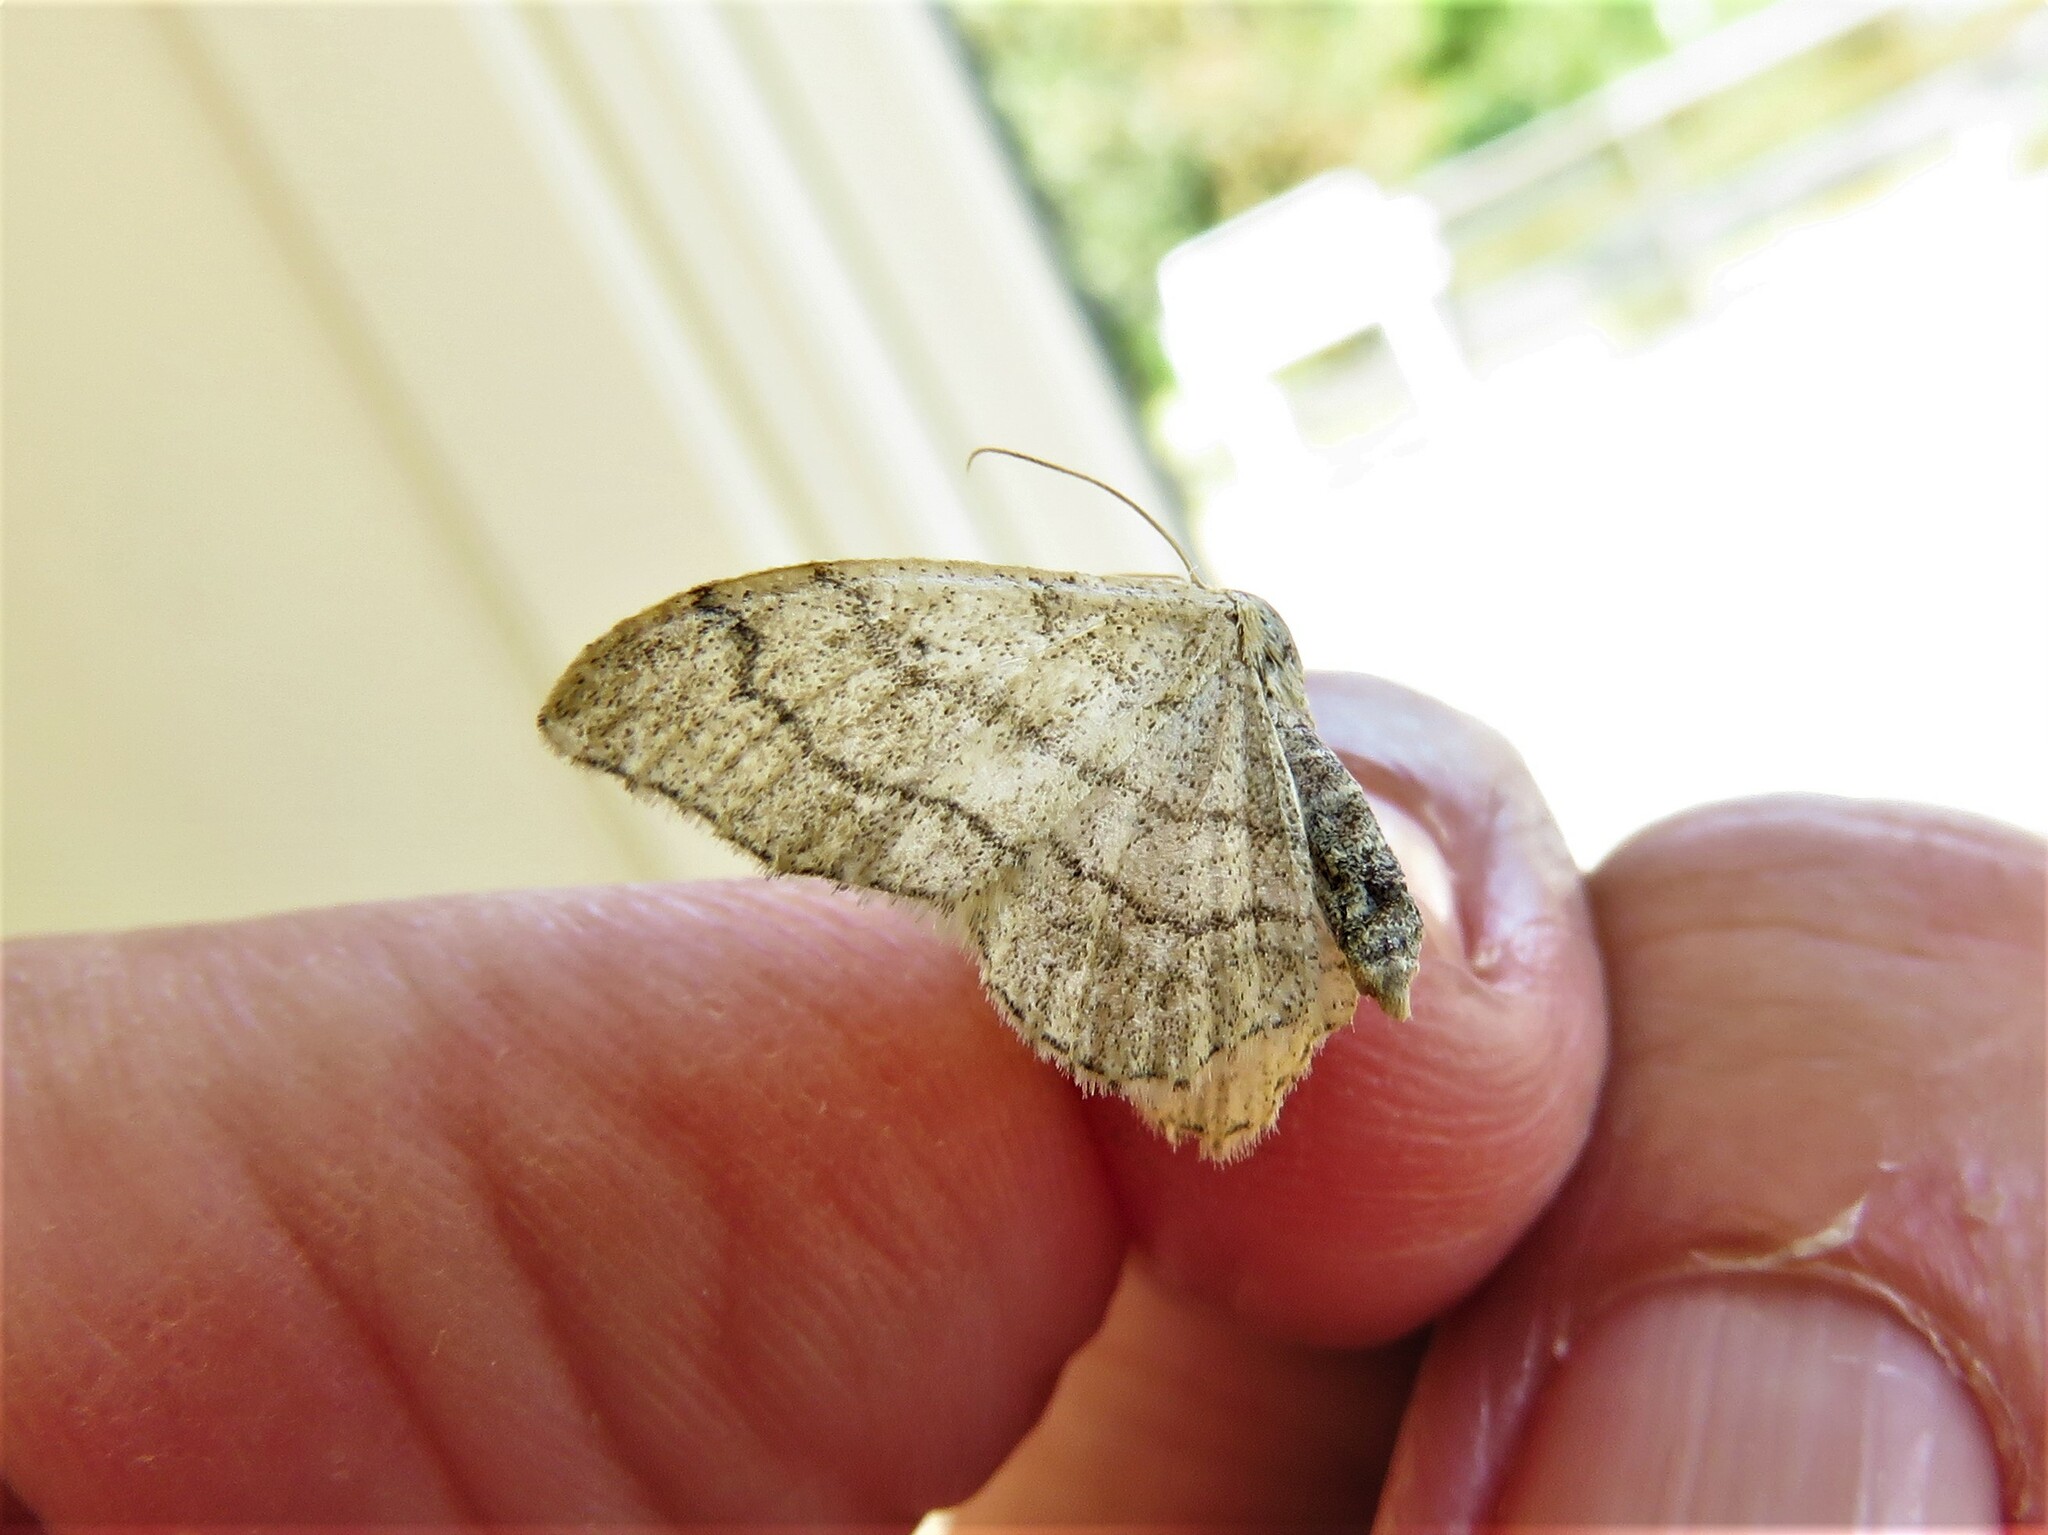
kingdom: Animalia
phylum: Arthropoda
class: Insecta
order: Lepidoptera
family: Geometridae
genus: Idaea
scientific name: Idaea aversata
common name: Riband wave
